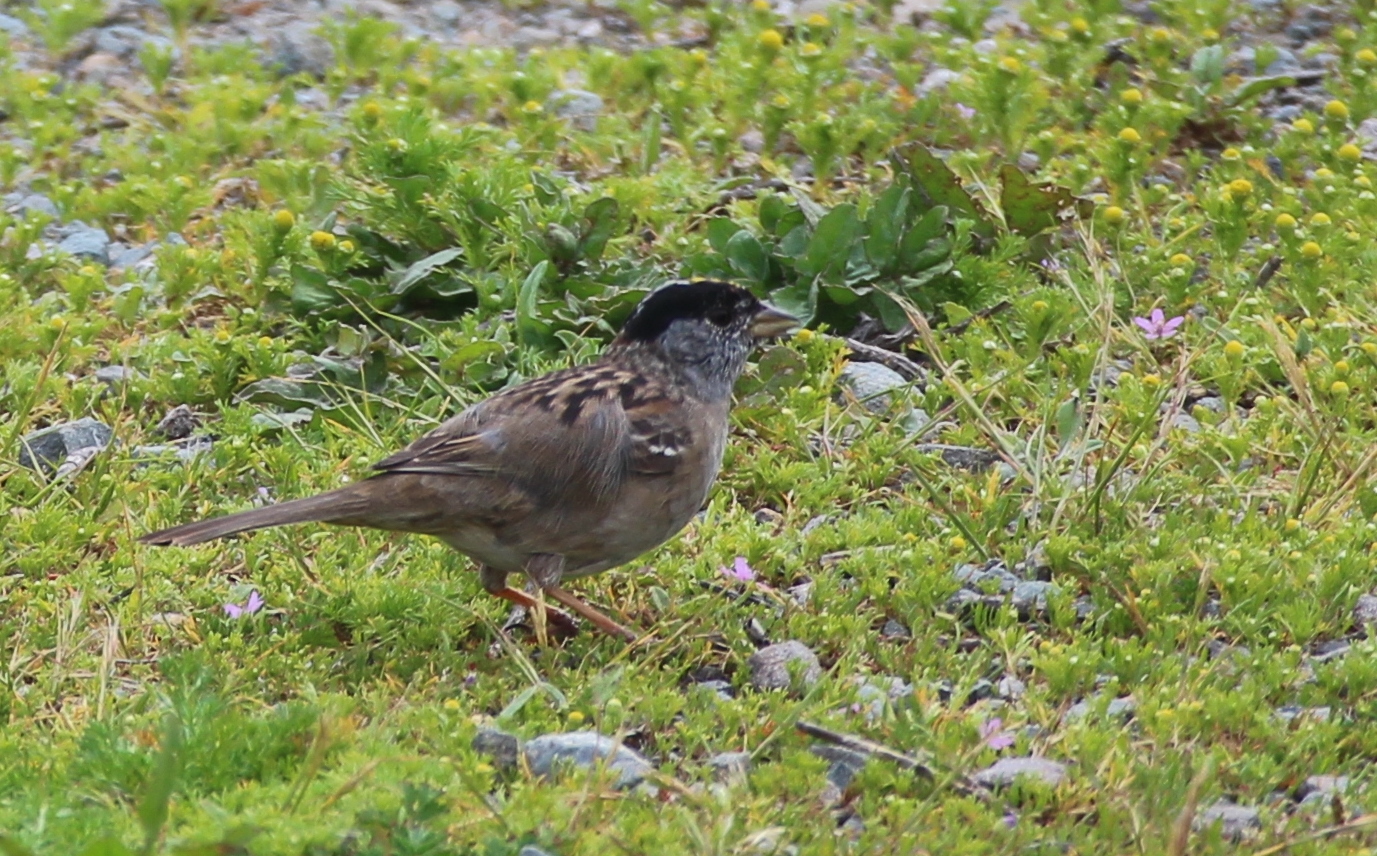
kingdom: Animalia
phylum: Chordata
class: Aves
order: Passeriformes
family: Passerellidae
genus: Zonotrichia
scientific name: Zonotrichia atricapilla
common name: Golden-crowned sparrow
